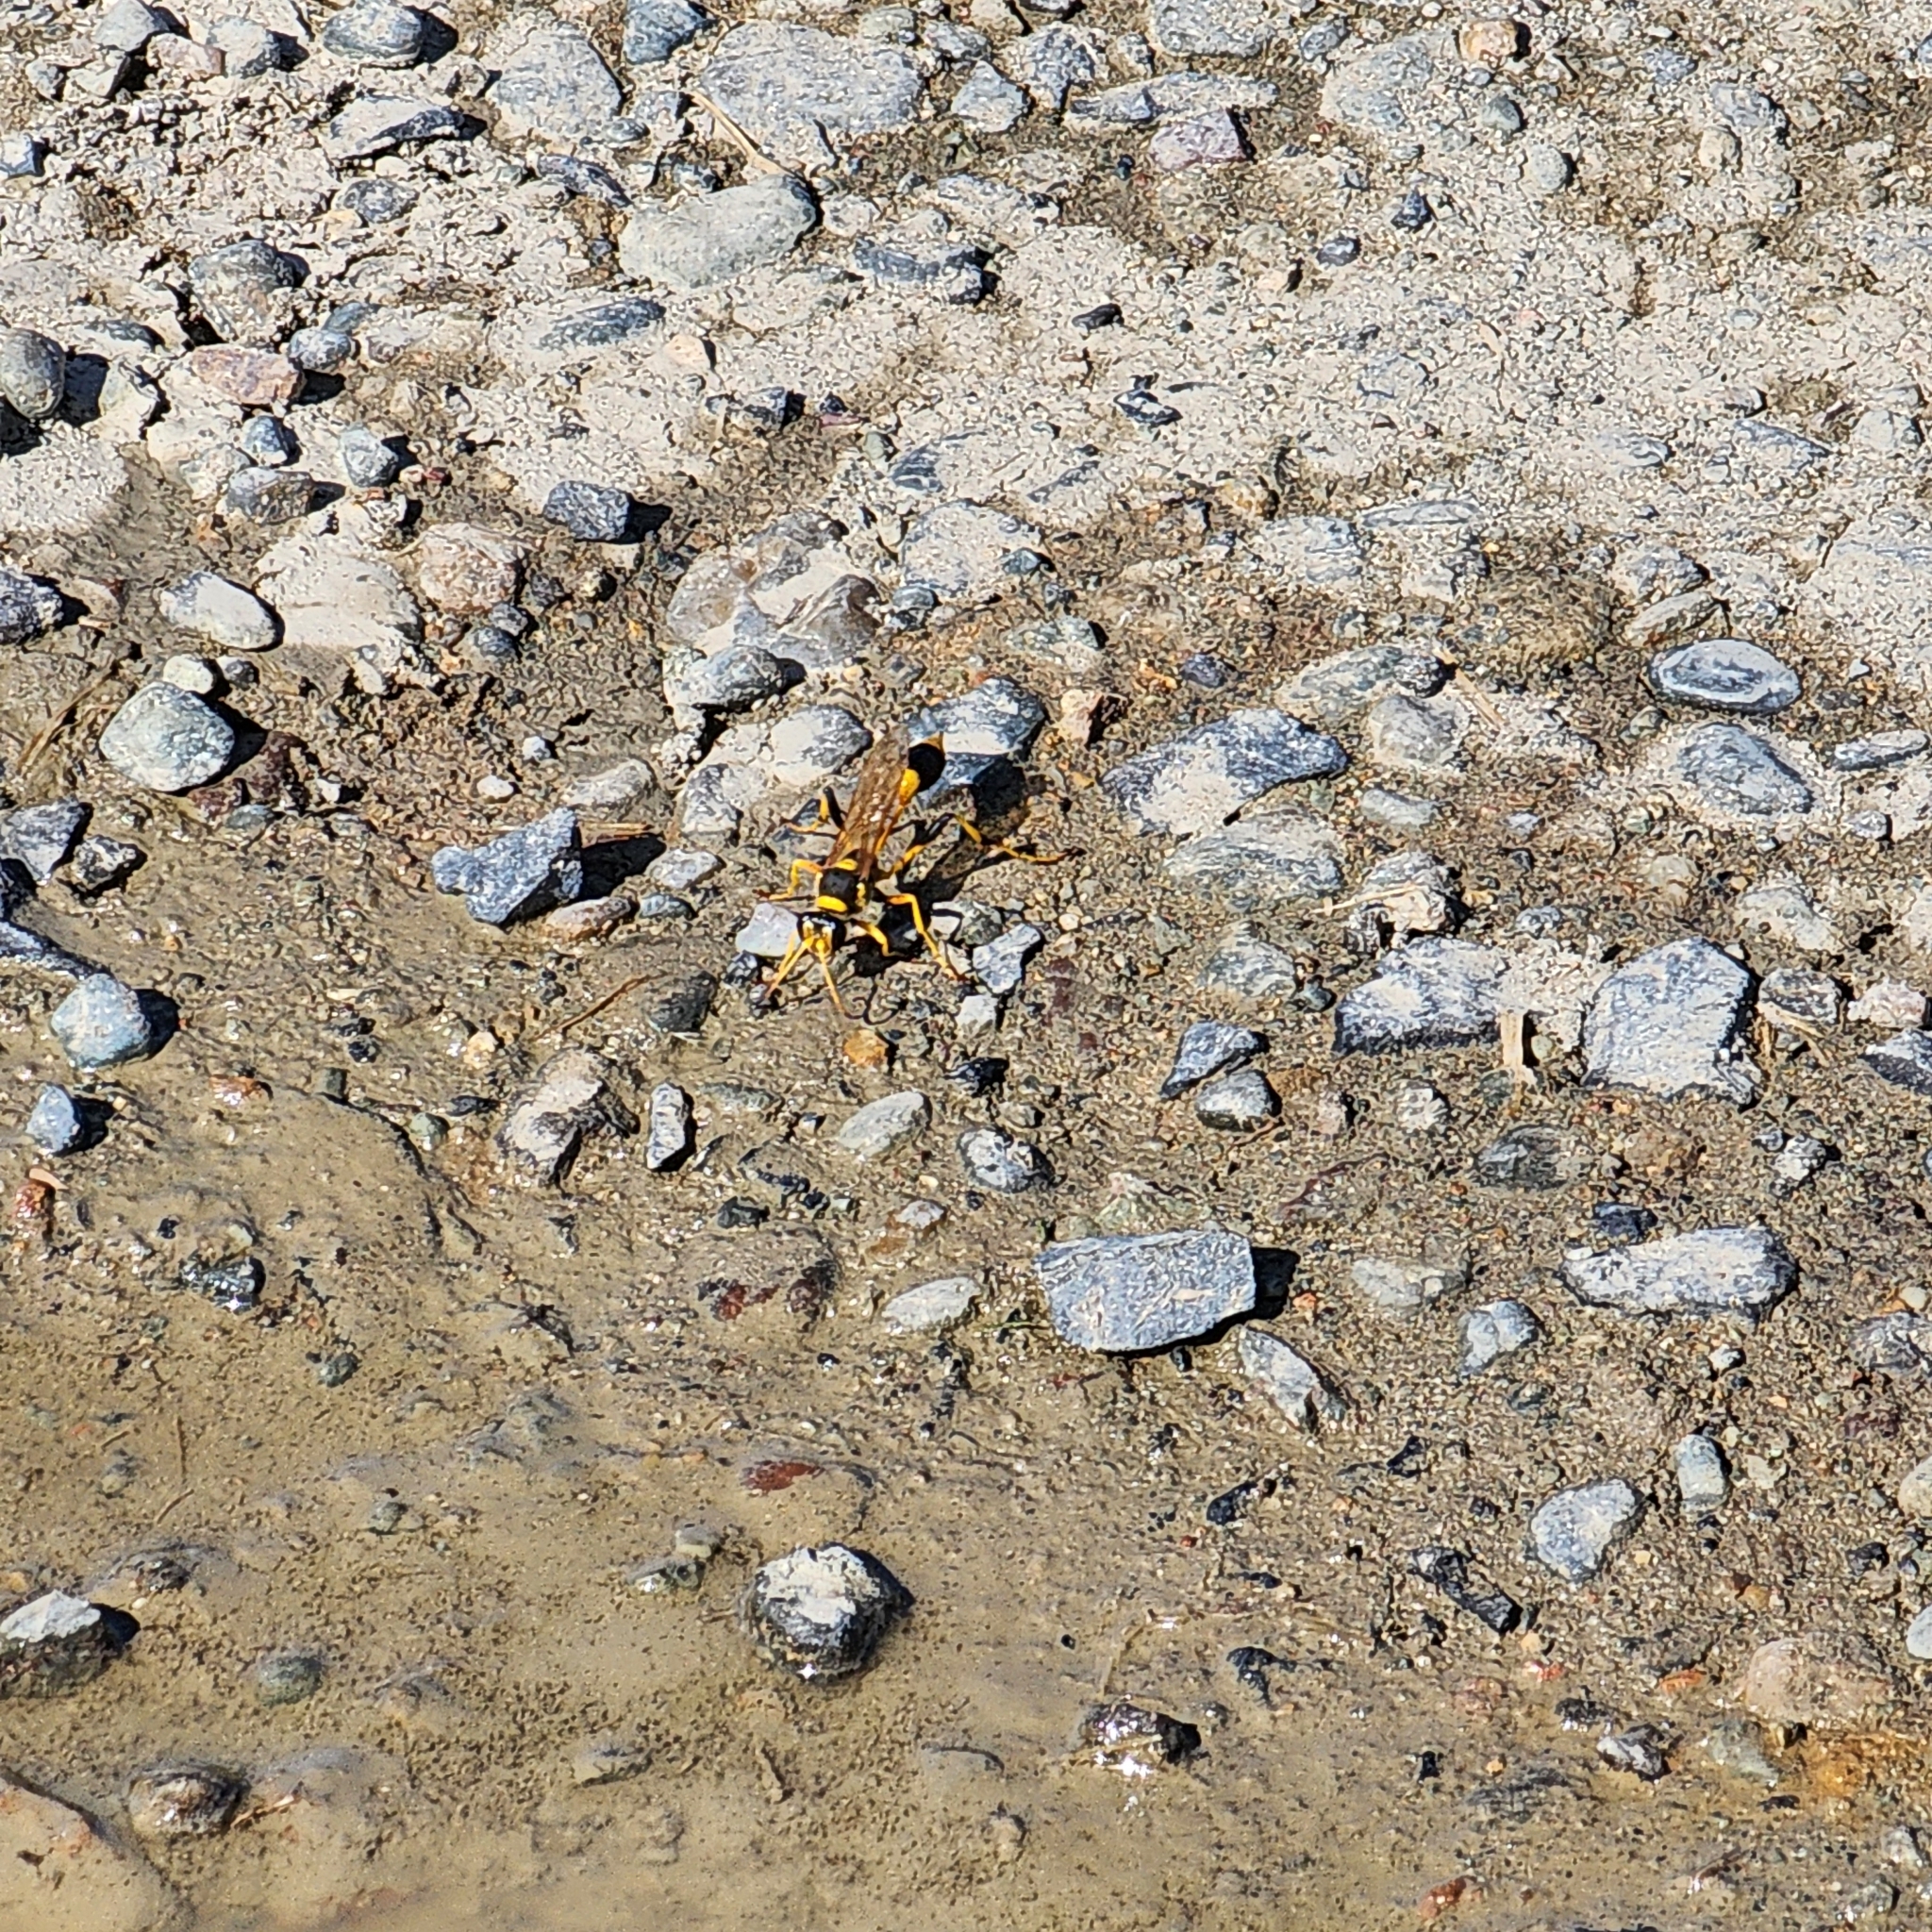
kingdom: Animalia
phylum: Arthropoda
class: Insecta
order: Hymenoptera
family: Sphecidae
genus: Sceliphron
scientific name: Sceliphron laetum
